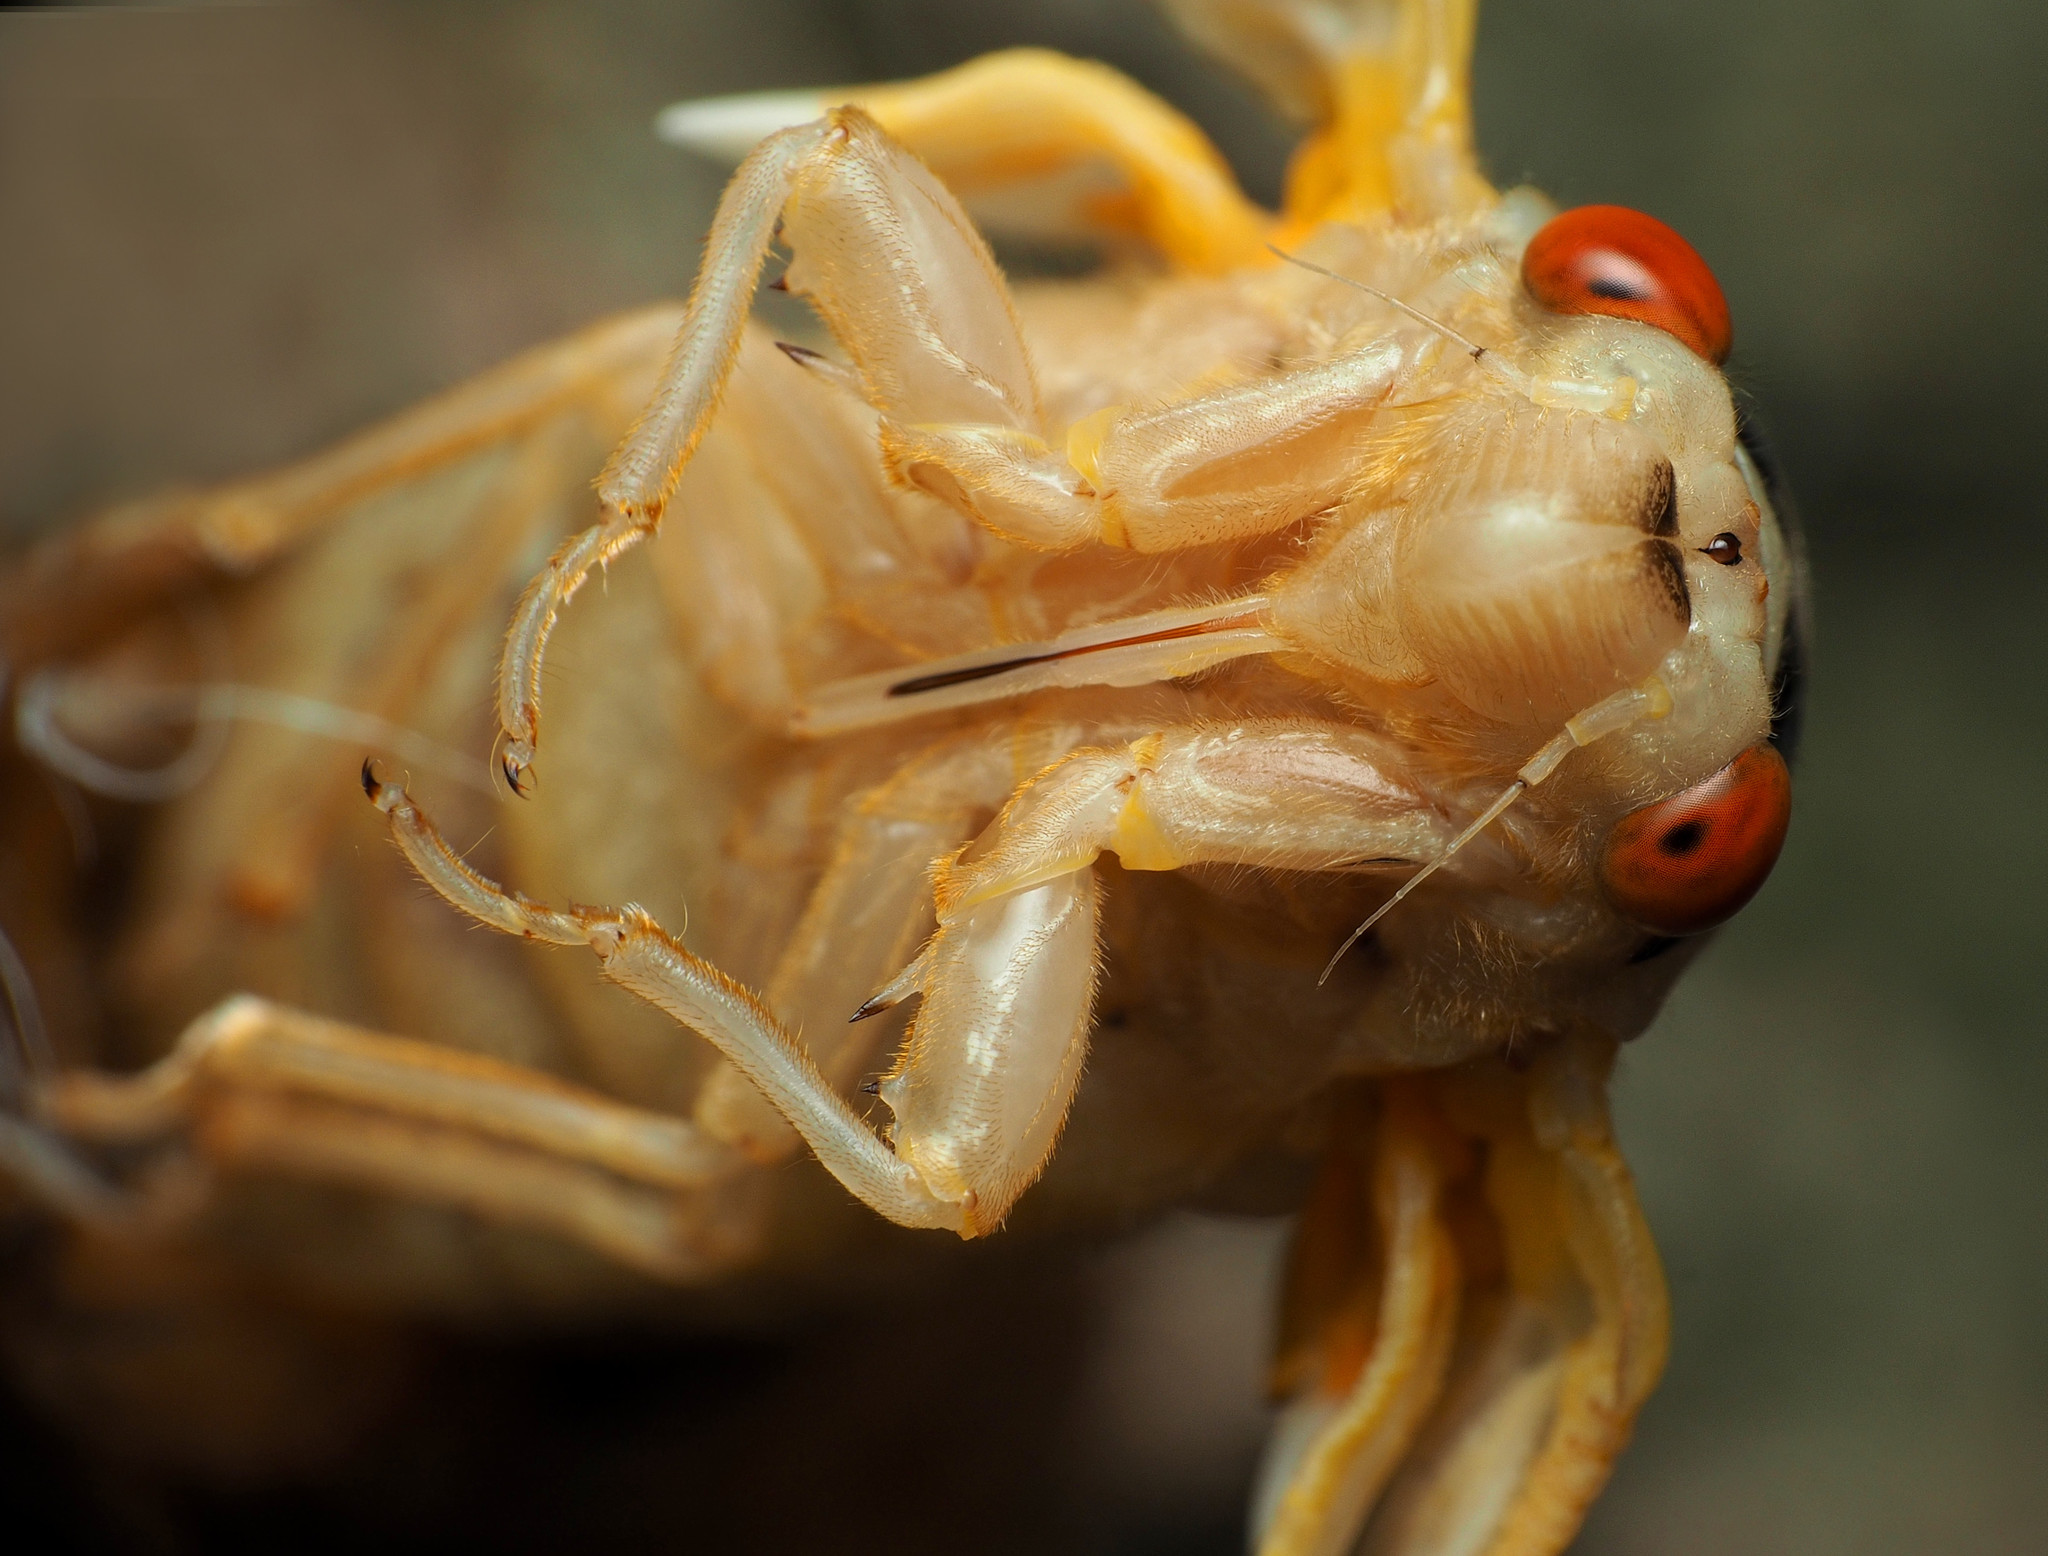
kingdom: Animalia
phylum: Arthropoda
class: Insecta
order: Hemiptera
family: Cicadidae
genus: Magicicada
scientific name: Magicicada
